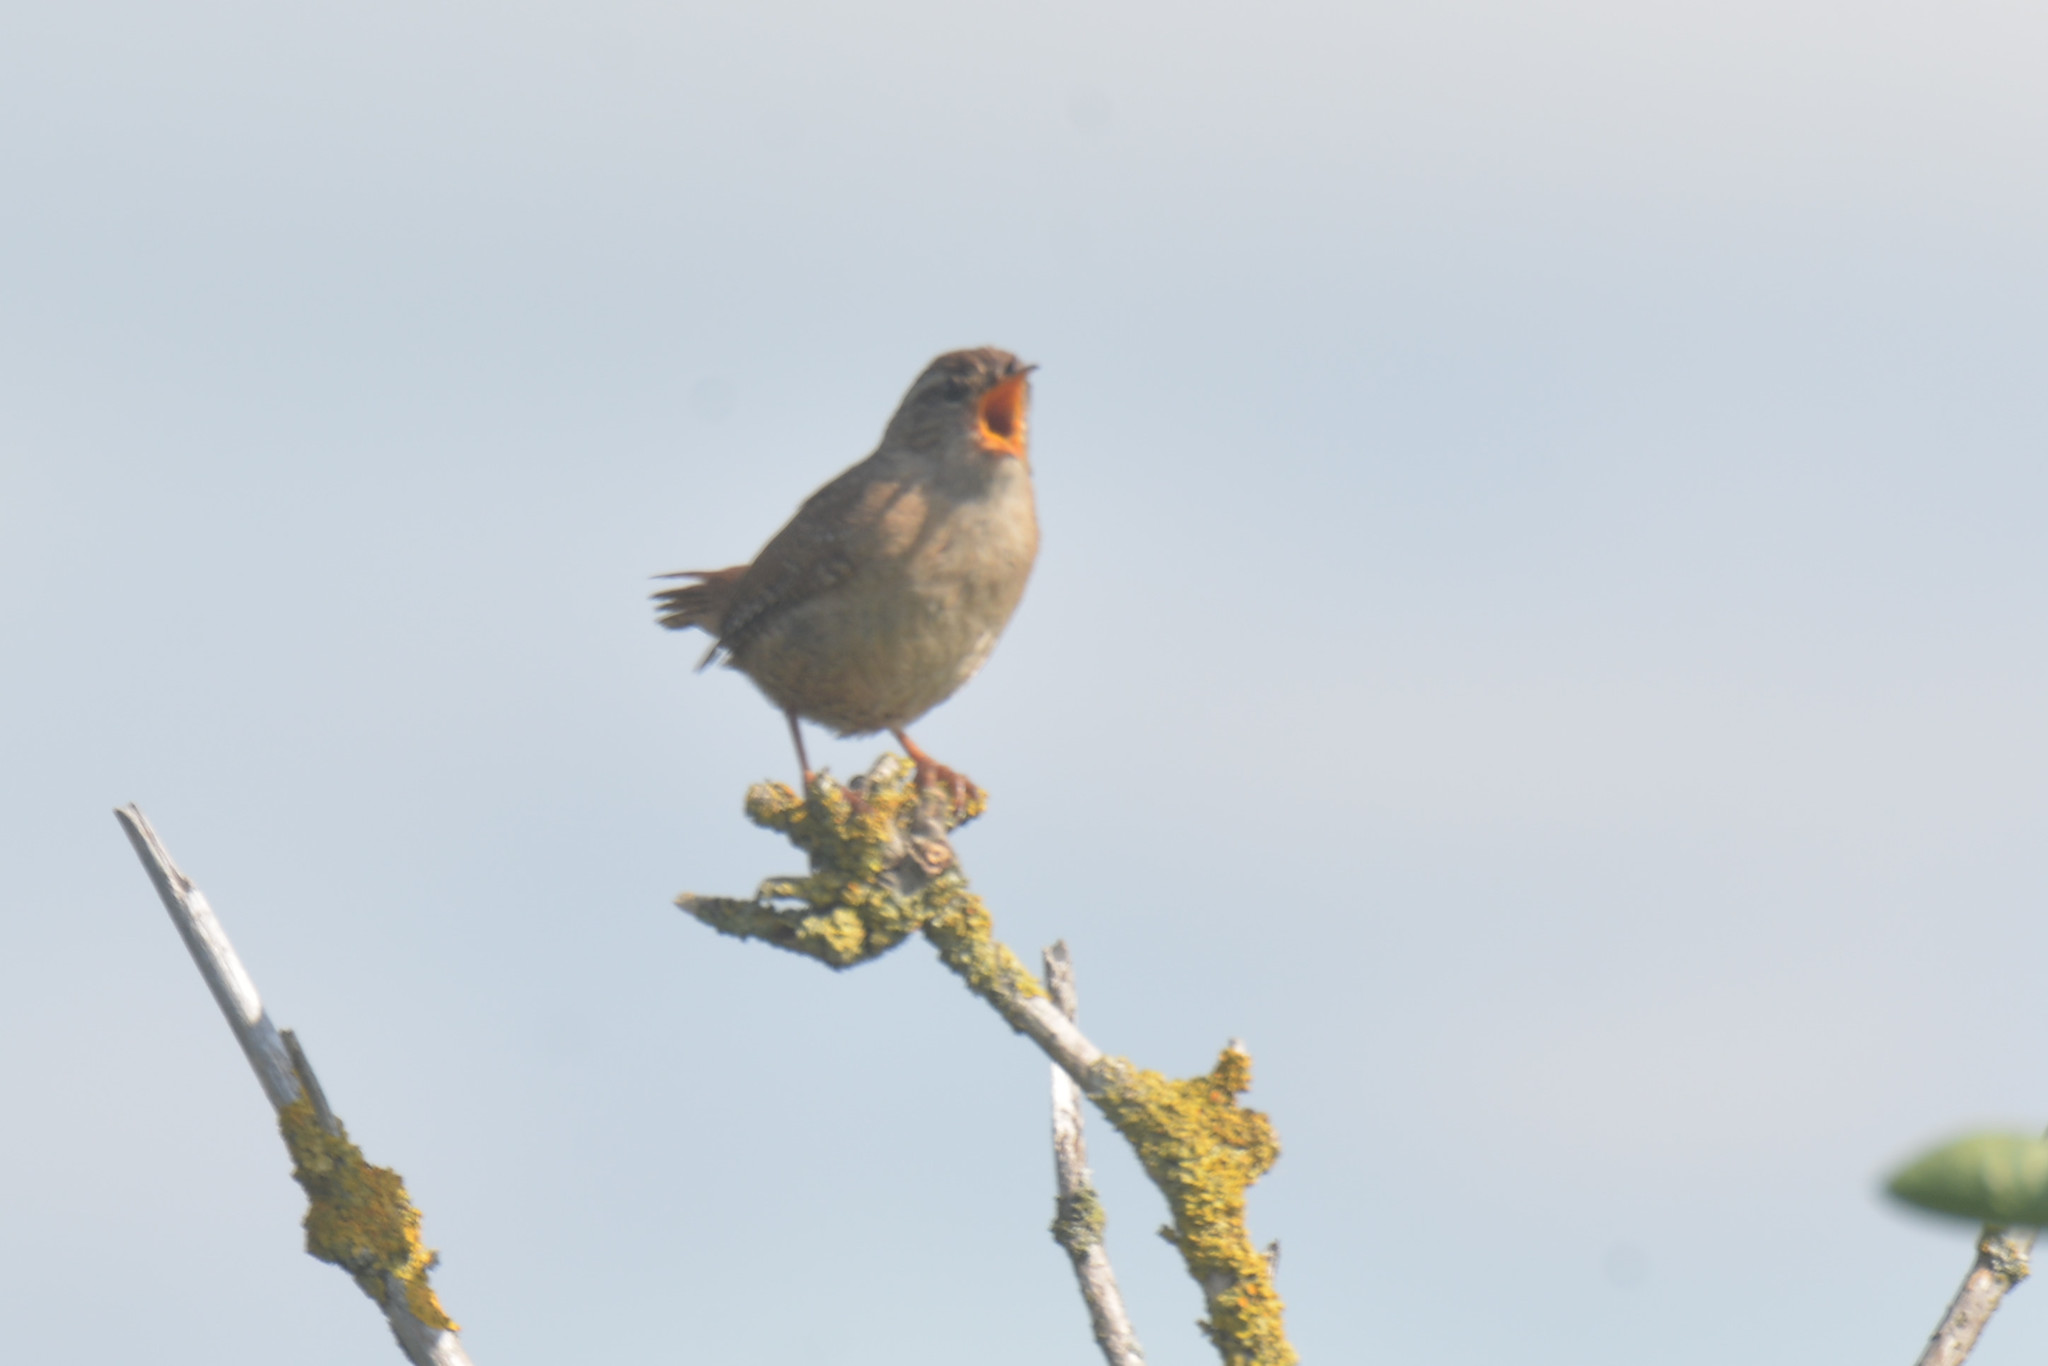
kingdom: Animalia
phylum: Chordata
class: Aves
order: Passeriformes
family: Troglodytidae
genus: Troglodytes
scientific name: Troglodytes troglodytes
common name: Eurasian wren
